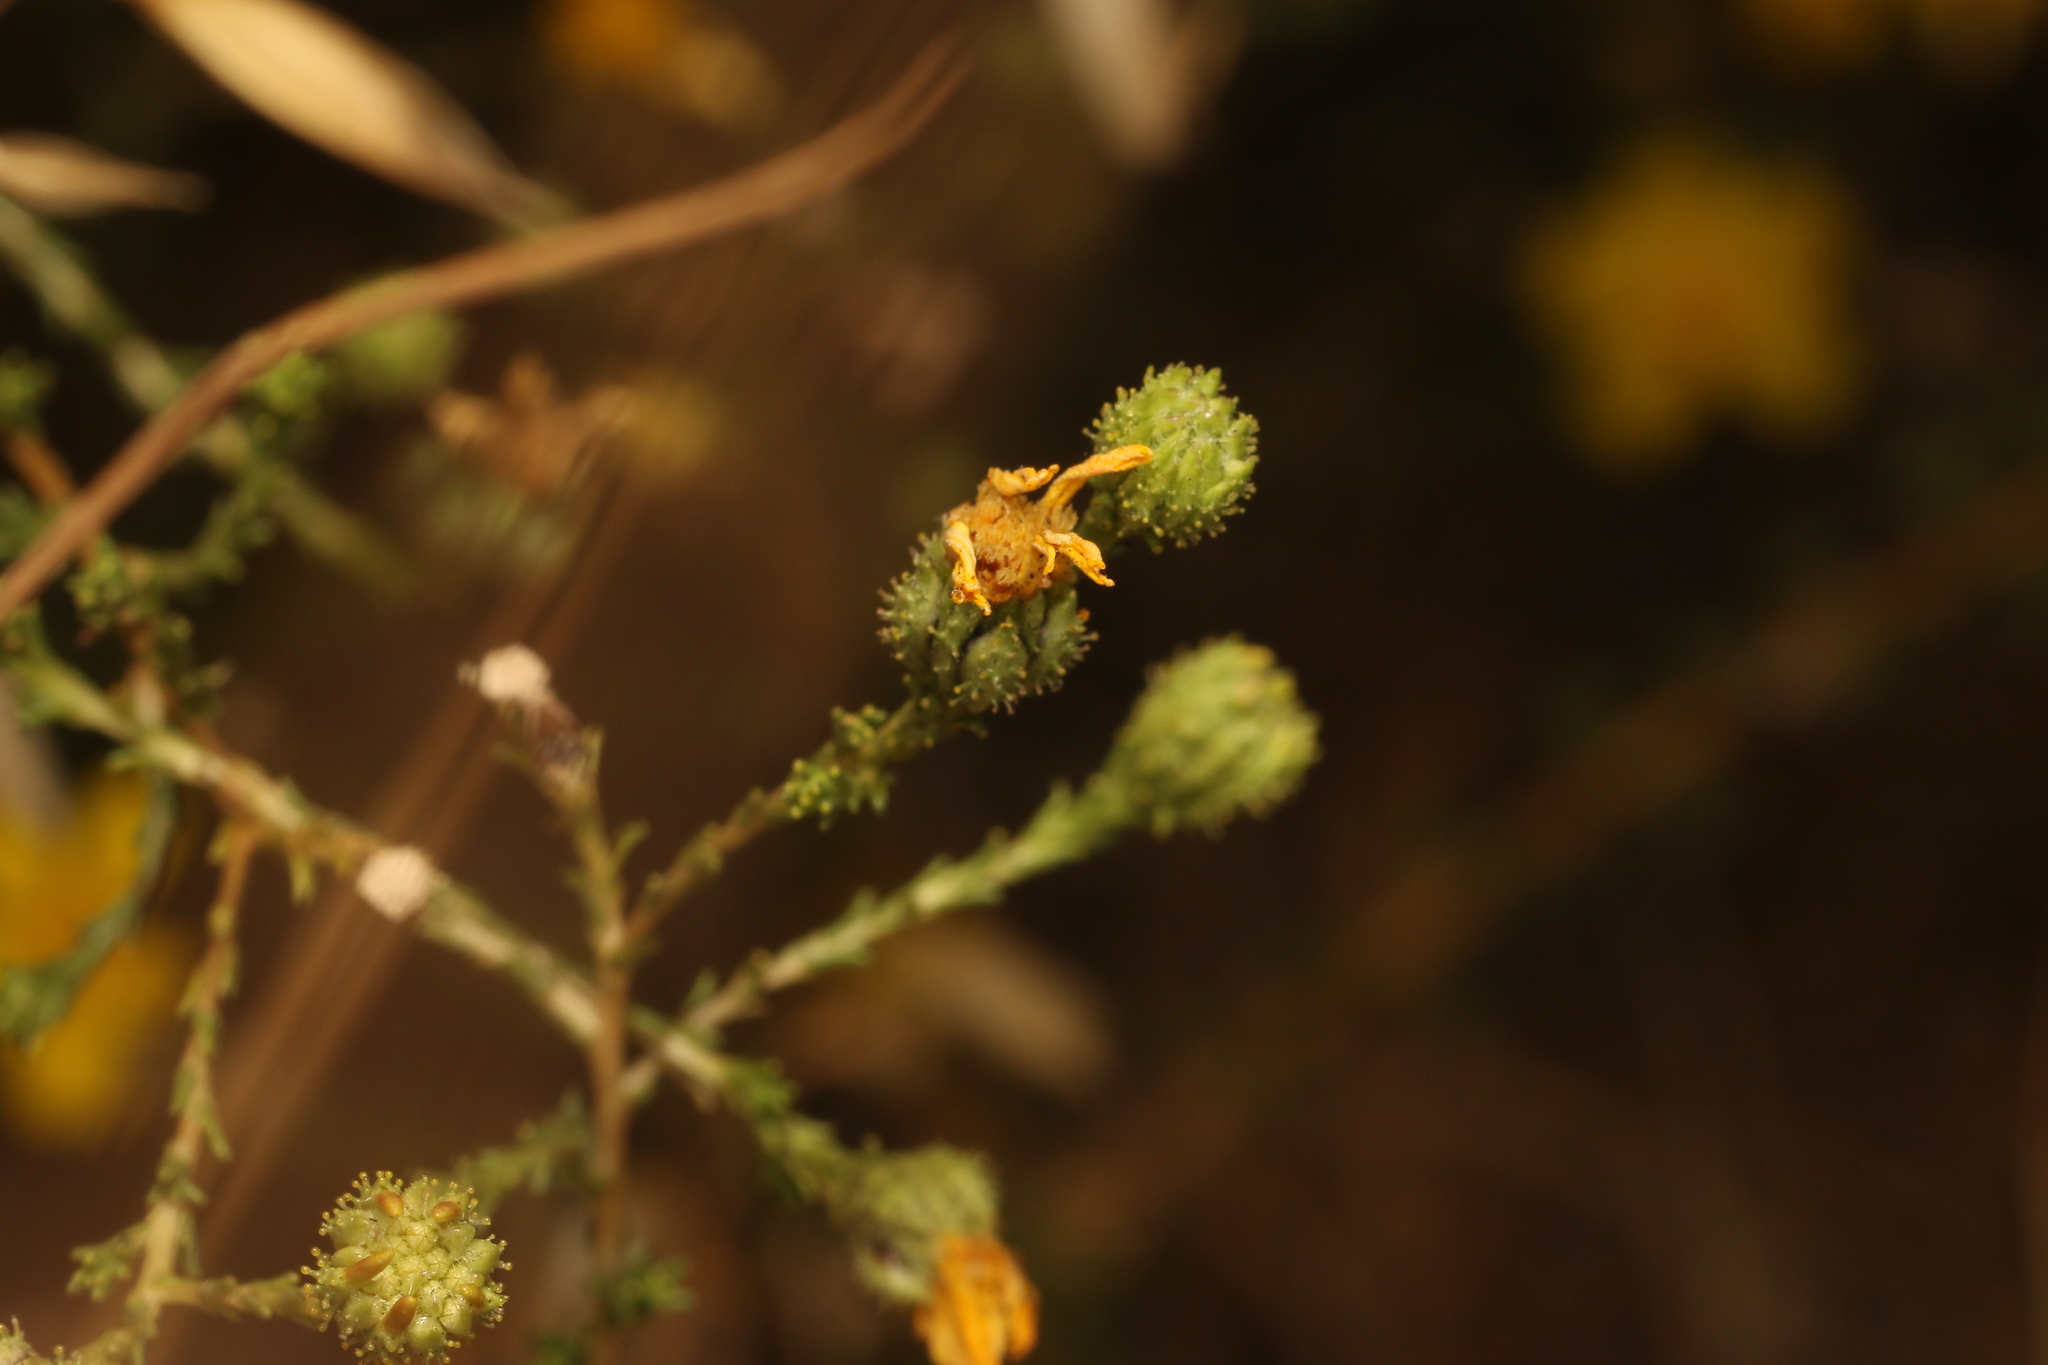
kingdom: Plantae
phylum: Tracheophyta
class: Magnoliopsida
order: Asterales
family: Asteraceae
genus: Holocarpha
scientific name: Holocarpha obconica
